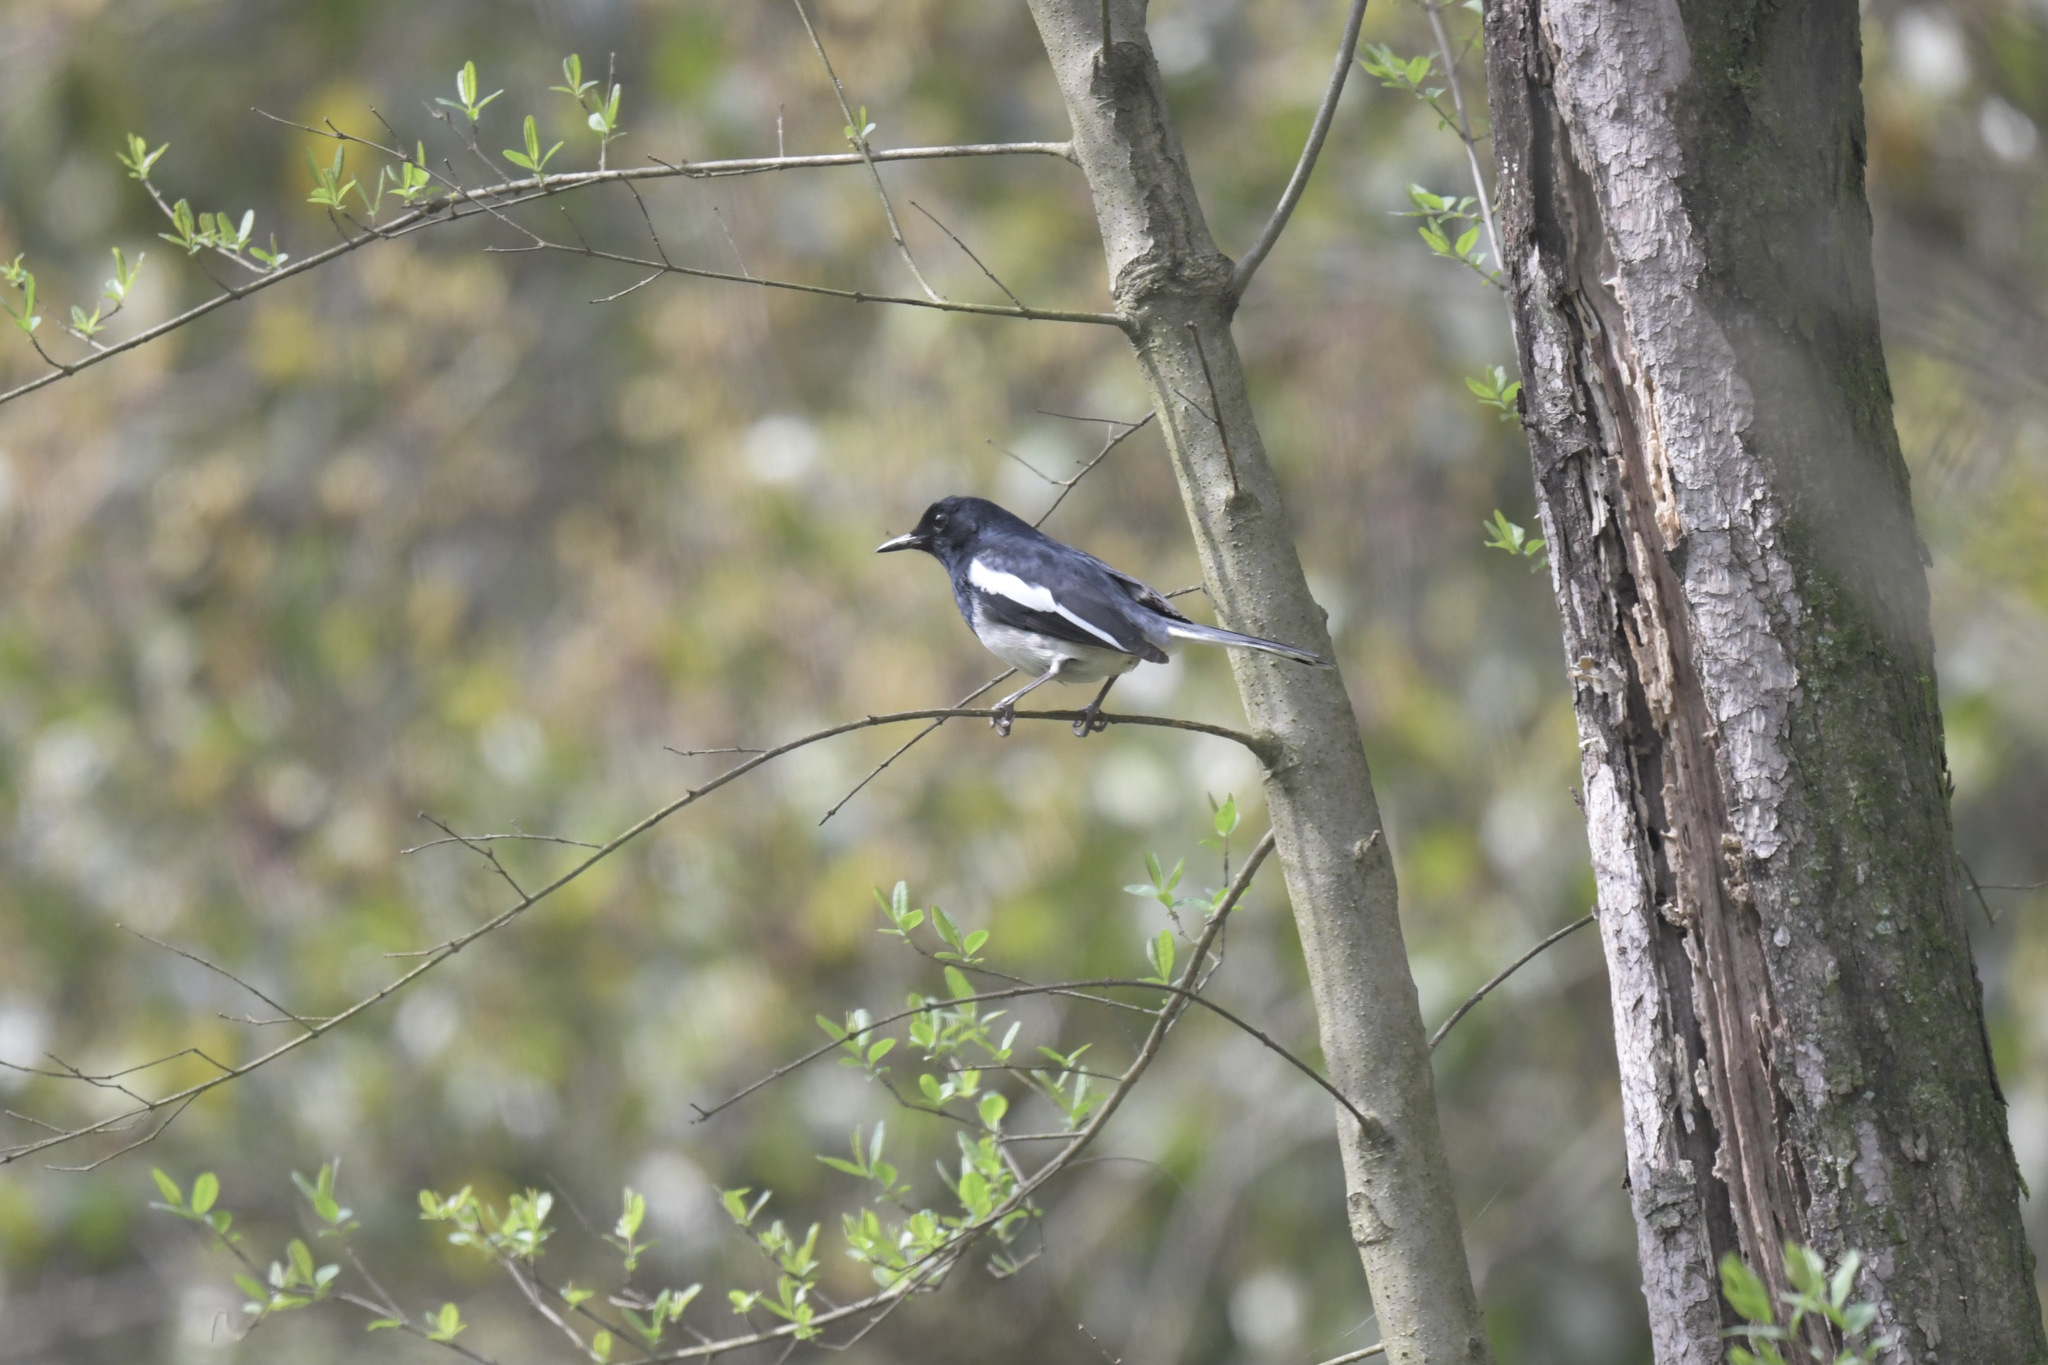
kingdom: Animalia
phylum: Chordata
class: Aves
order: Passeriformes
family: Muscicapidae
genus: Copsychus
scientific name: Copsychus saularis
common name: Oriental magpie-robin
